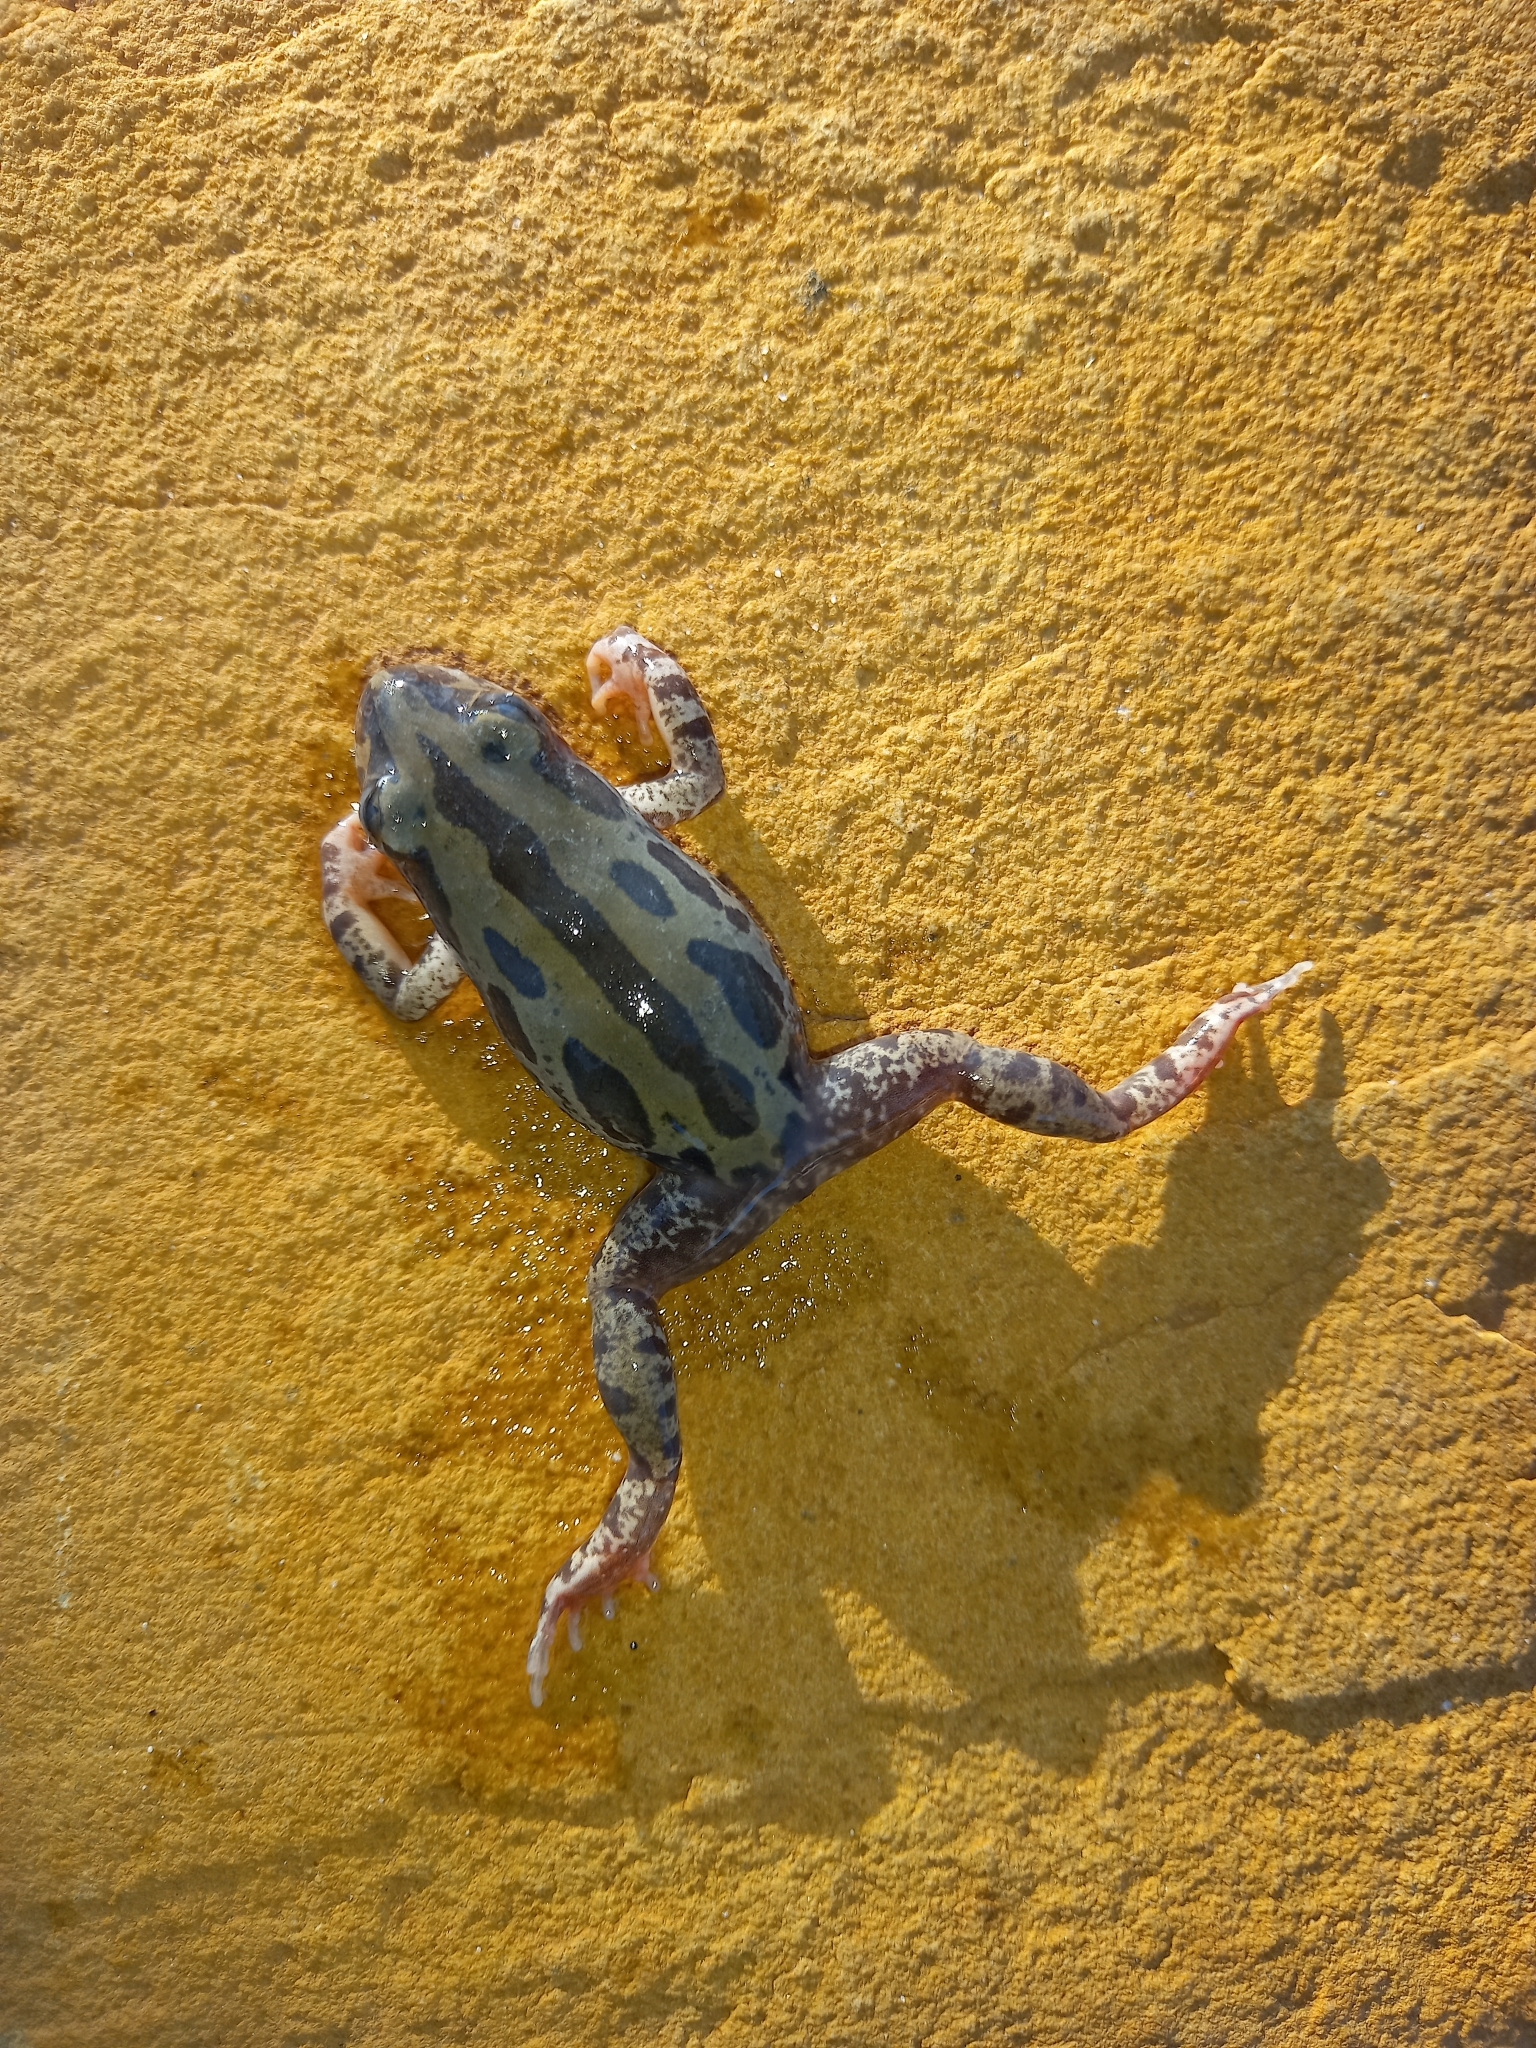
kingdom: Animalia
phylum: Chordata
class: Amphibia
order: Anura
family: Hyperoliidae
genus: Kassina
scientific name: Kassina senegalensis
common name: Senegal land frog
